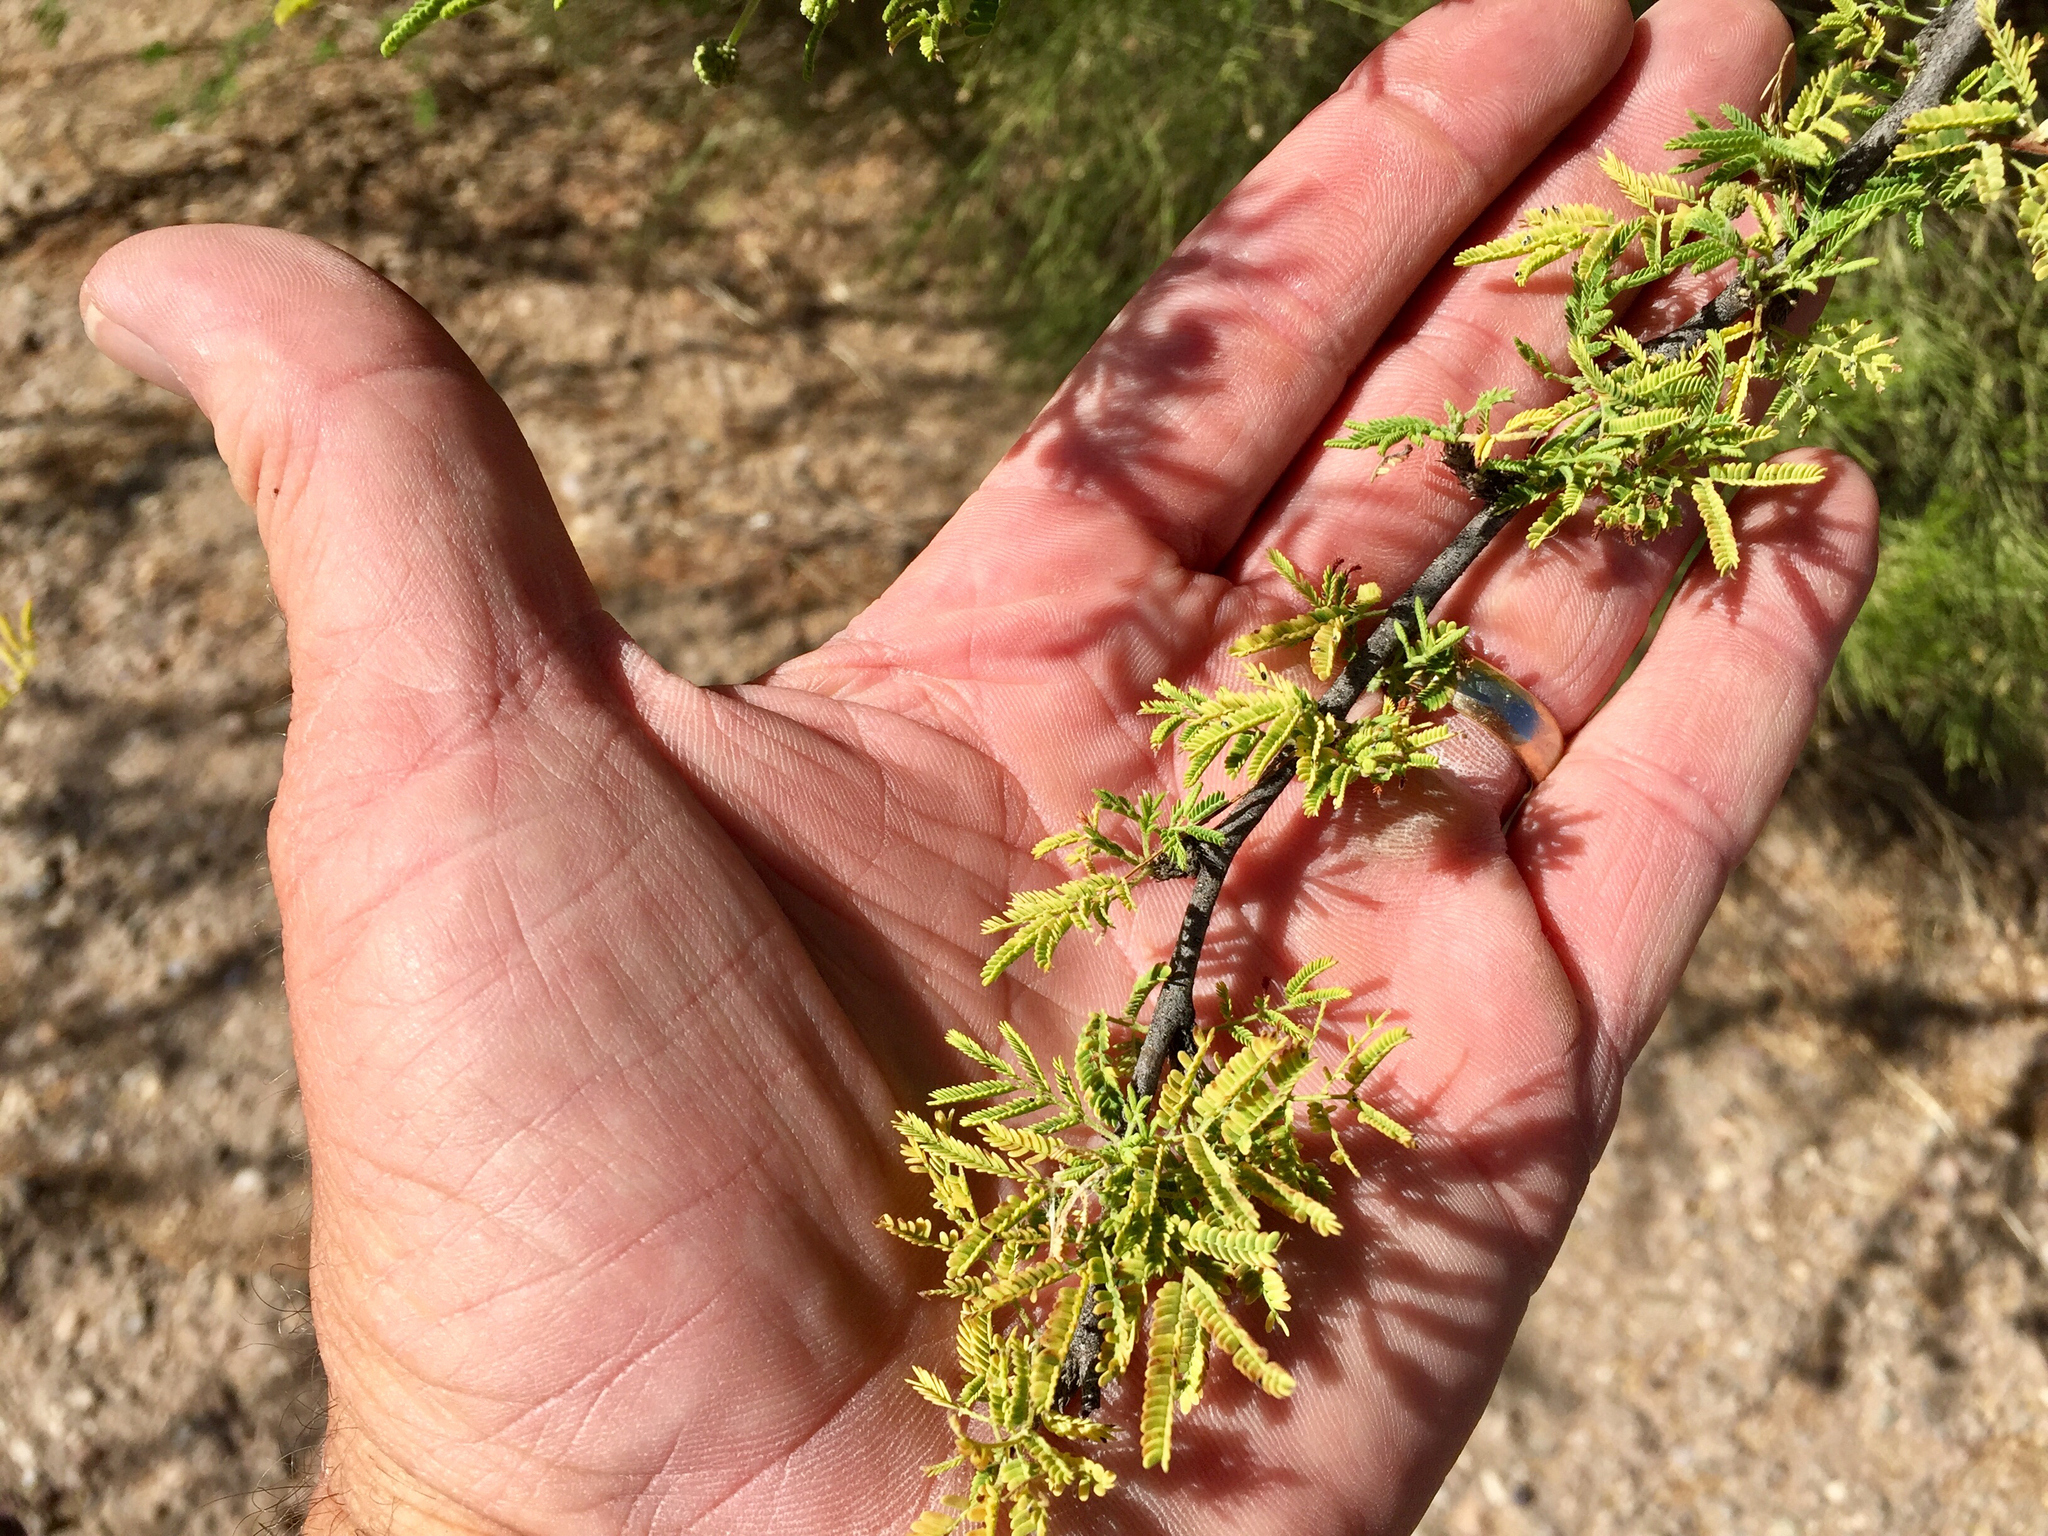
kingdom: Plantae
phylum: Tracheophyta
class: Magnoliopsida
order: Fabales
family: Fabaceae
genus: Vachellia
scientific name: Vachellia farnesiana
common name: Sweet acacia
